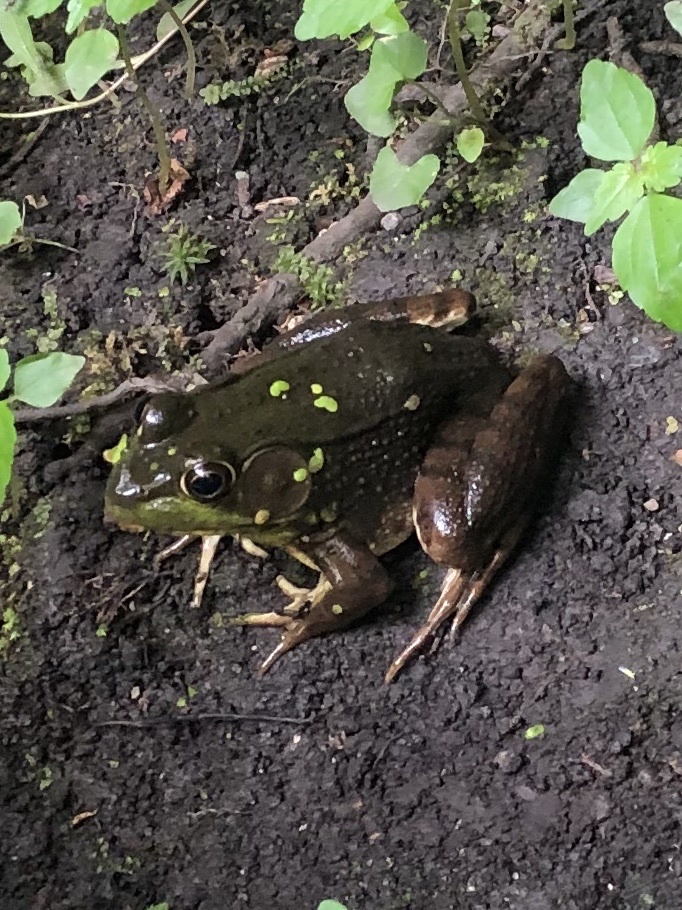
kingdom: Animalia
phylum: Chordata
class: Amphibia
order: Anura
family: Ranidae
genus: Lithobates
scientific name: Lithobates clamitans
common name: Green frog
